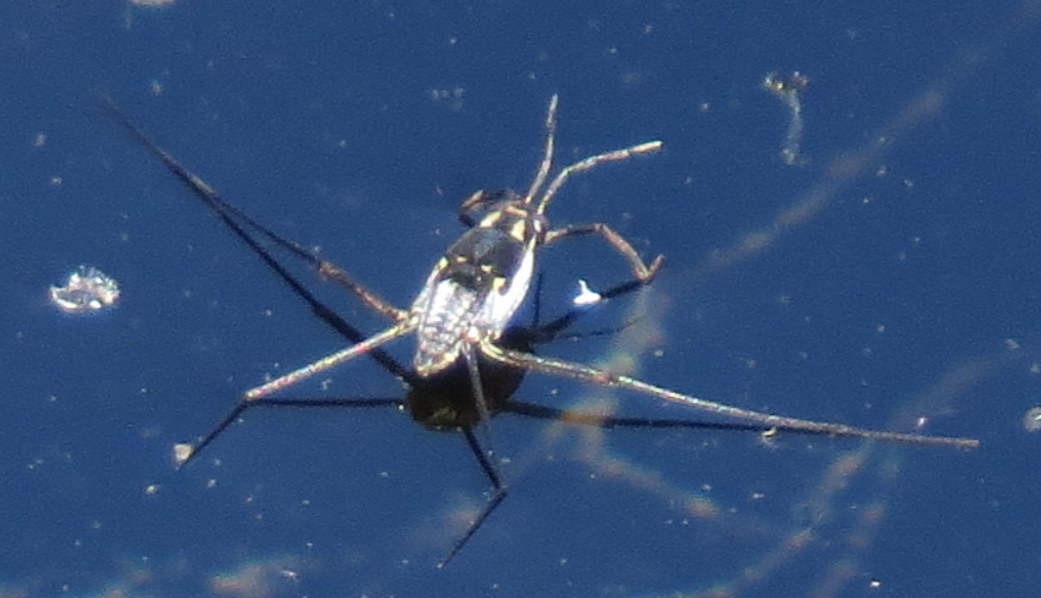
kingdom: Animalia
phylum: Arthropoda
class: Insecta
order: Hemiptera
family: Gerridae
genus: Trepobates
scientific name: Trepobates subnitidus
